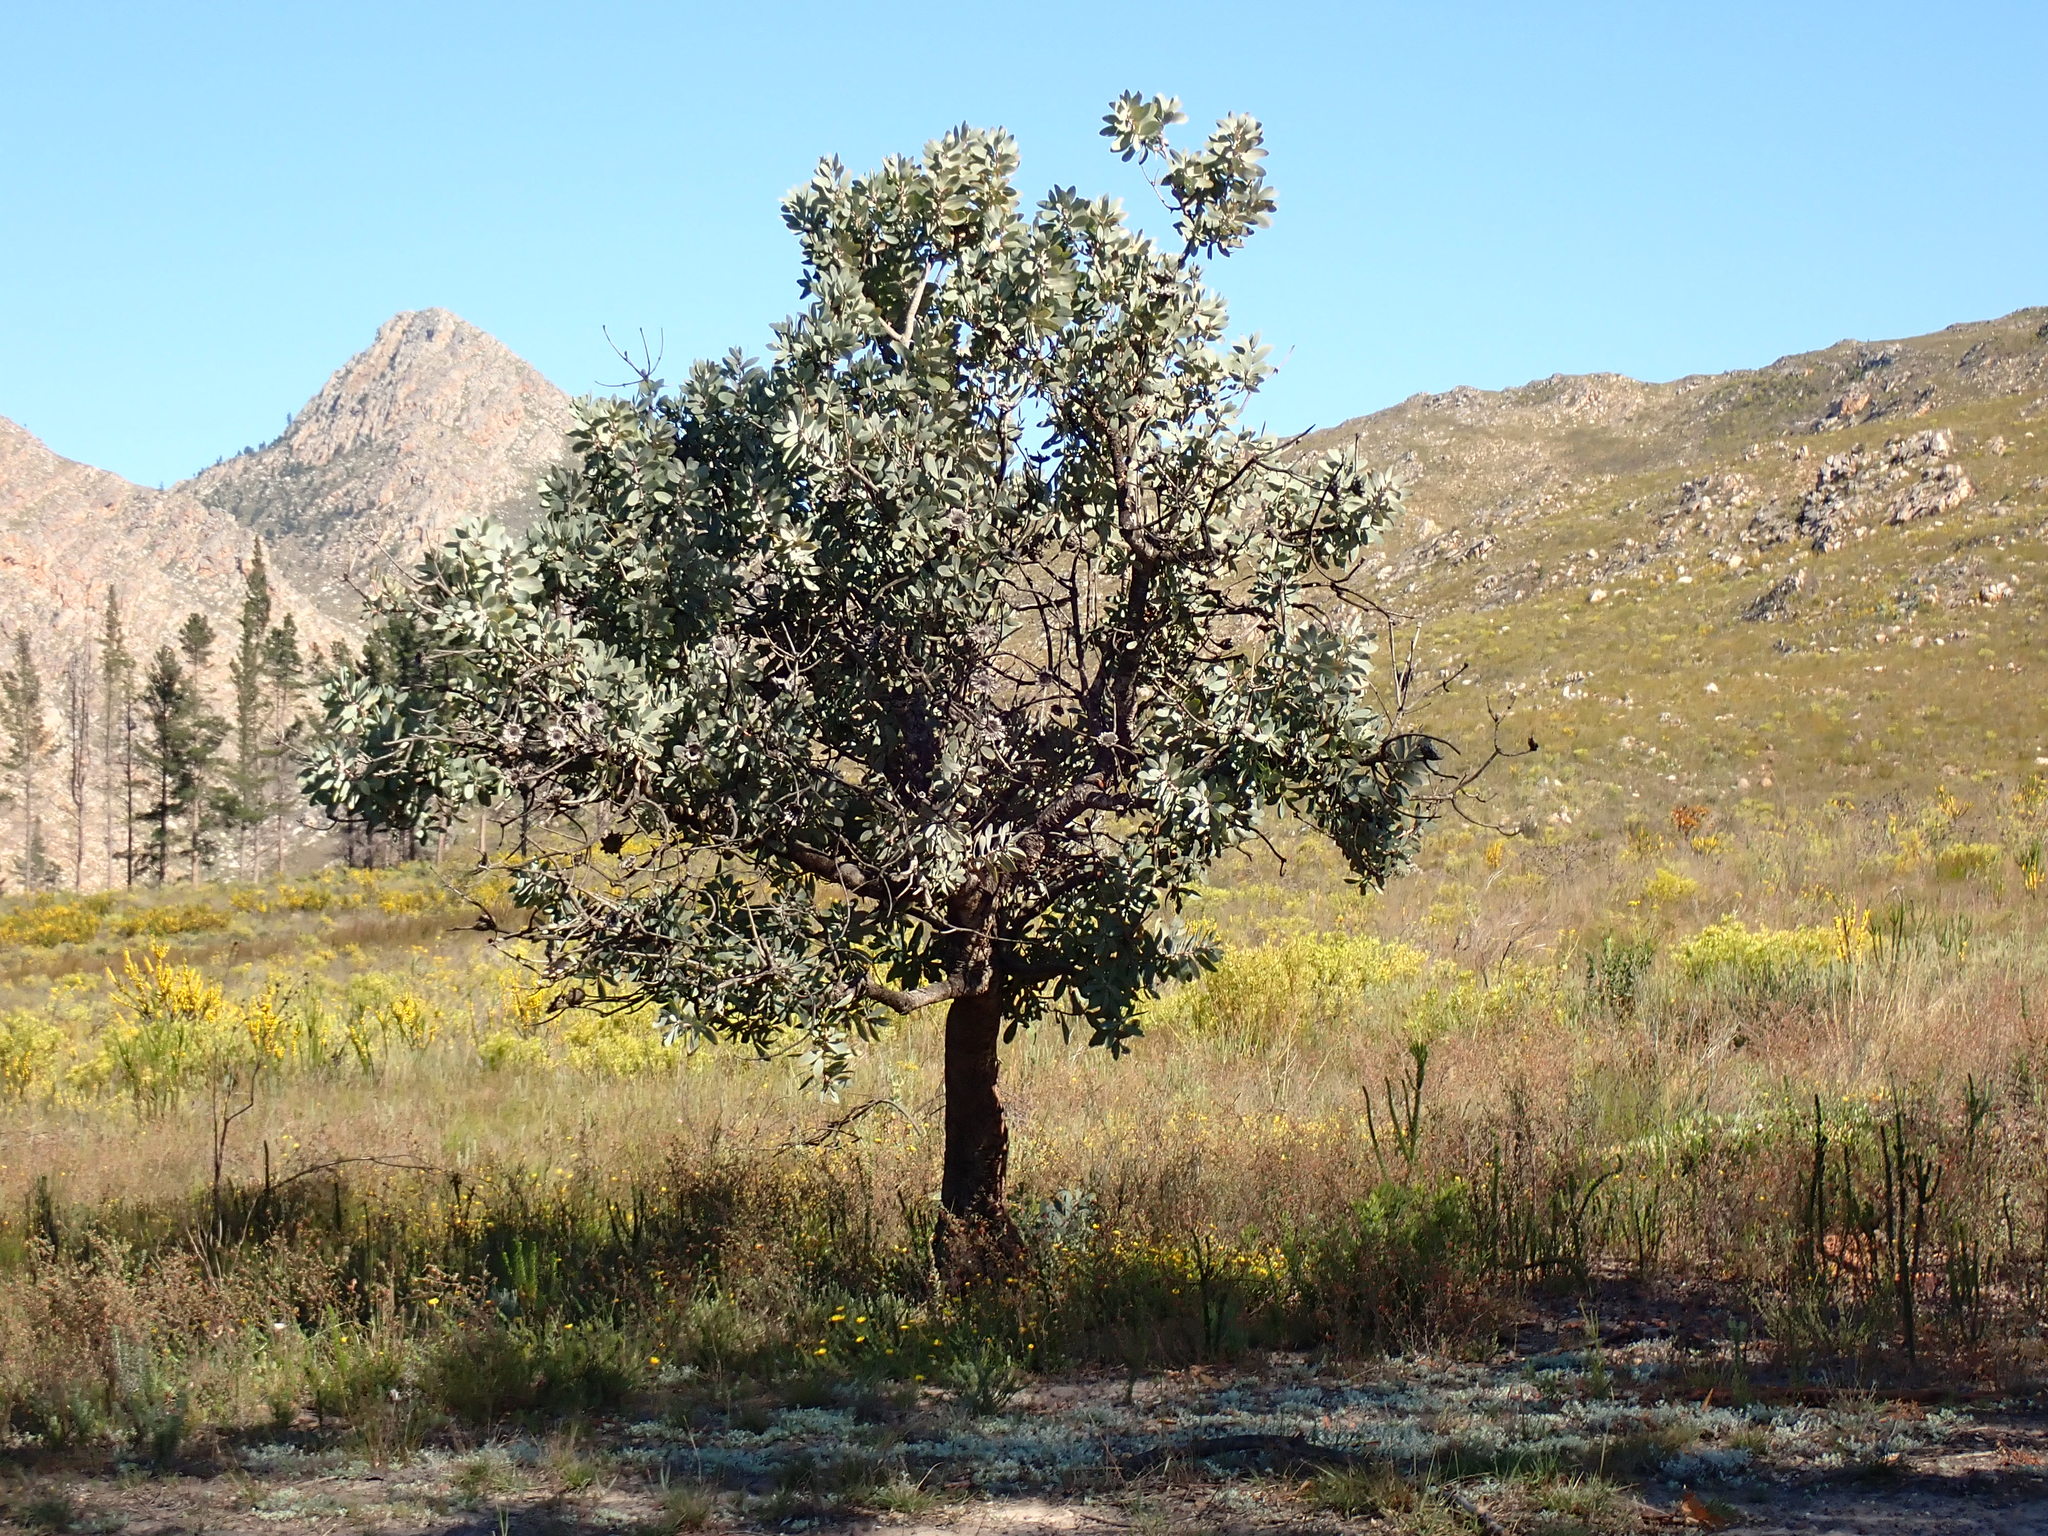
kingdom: Plantae
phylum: Tracheophyta
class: Magnoliopsida
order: Proteales
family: Proteaceae
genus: Protea
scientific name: Protea nitida
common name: Tree protea
